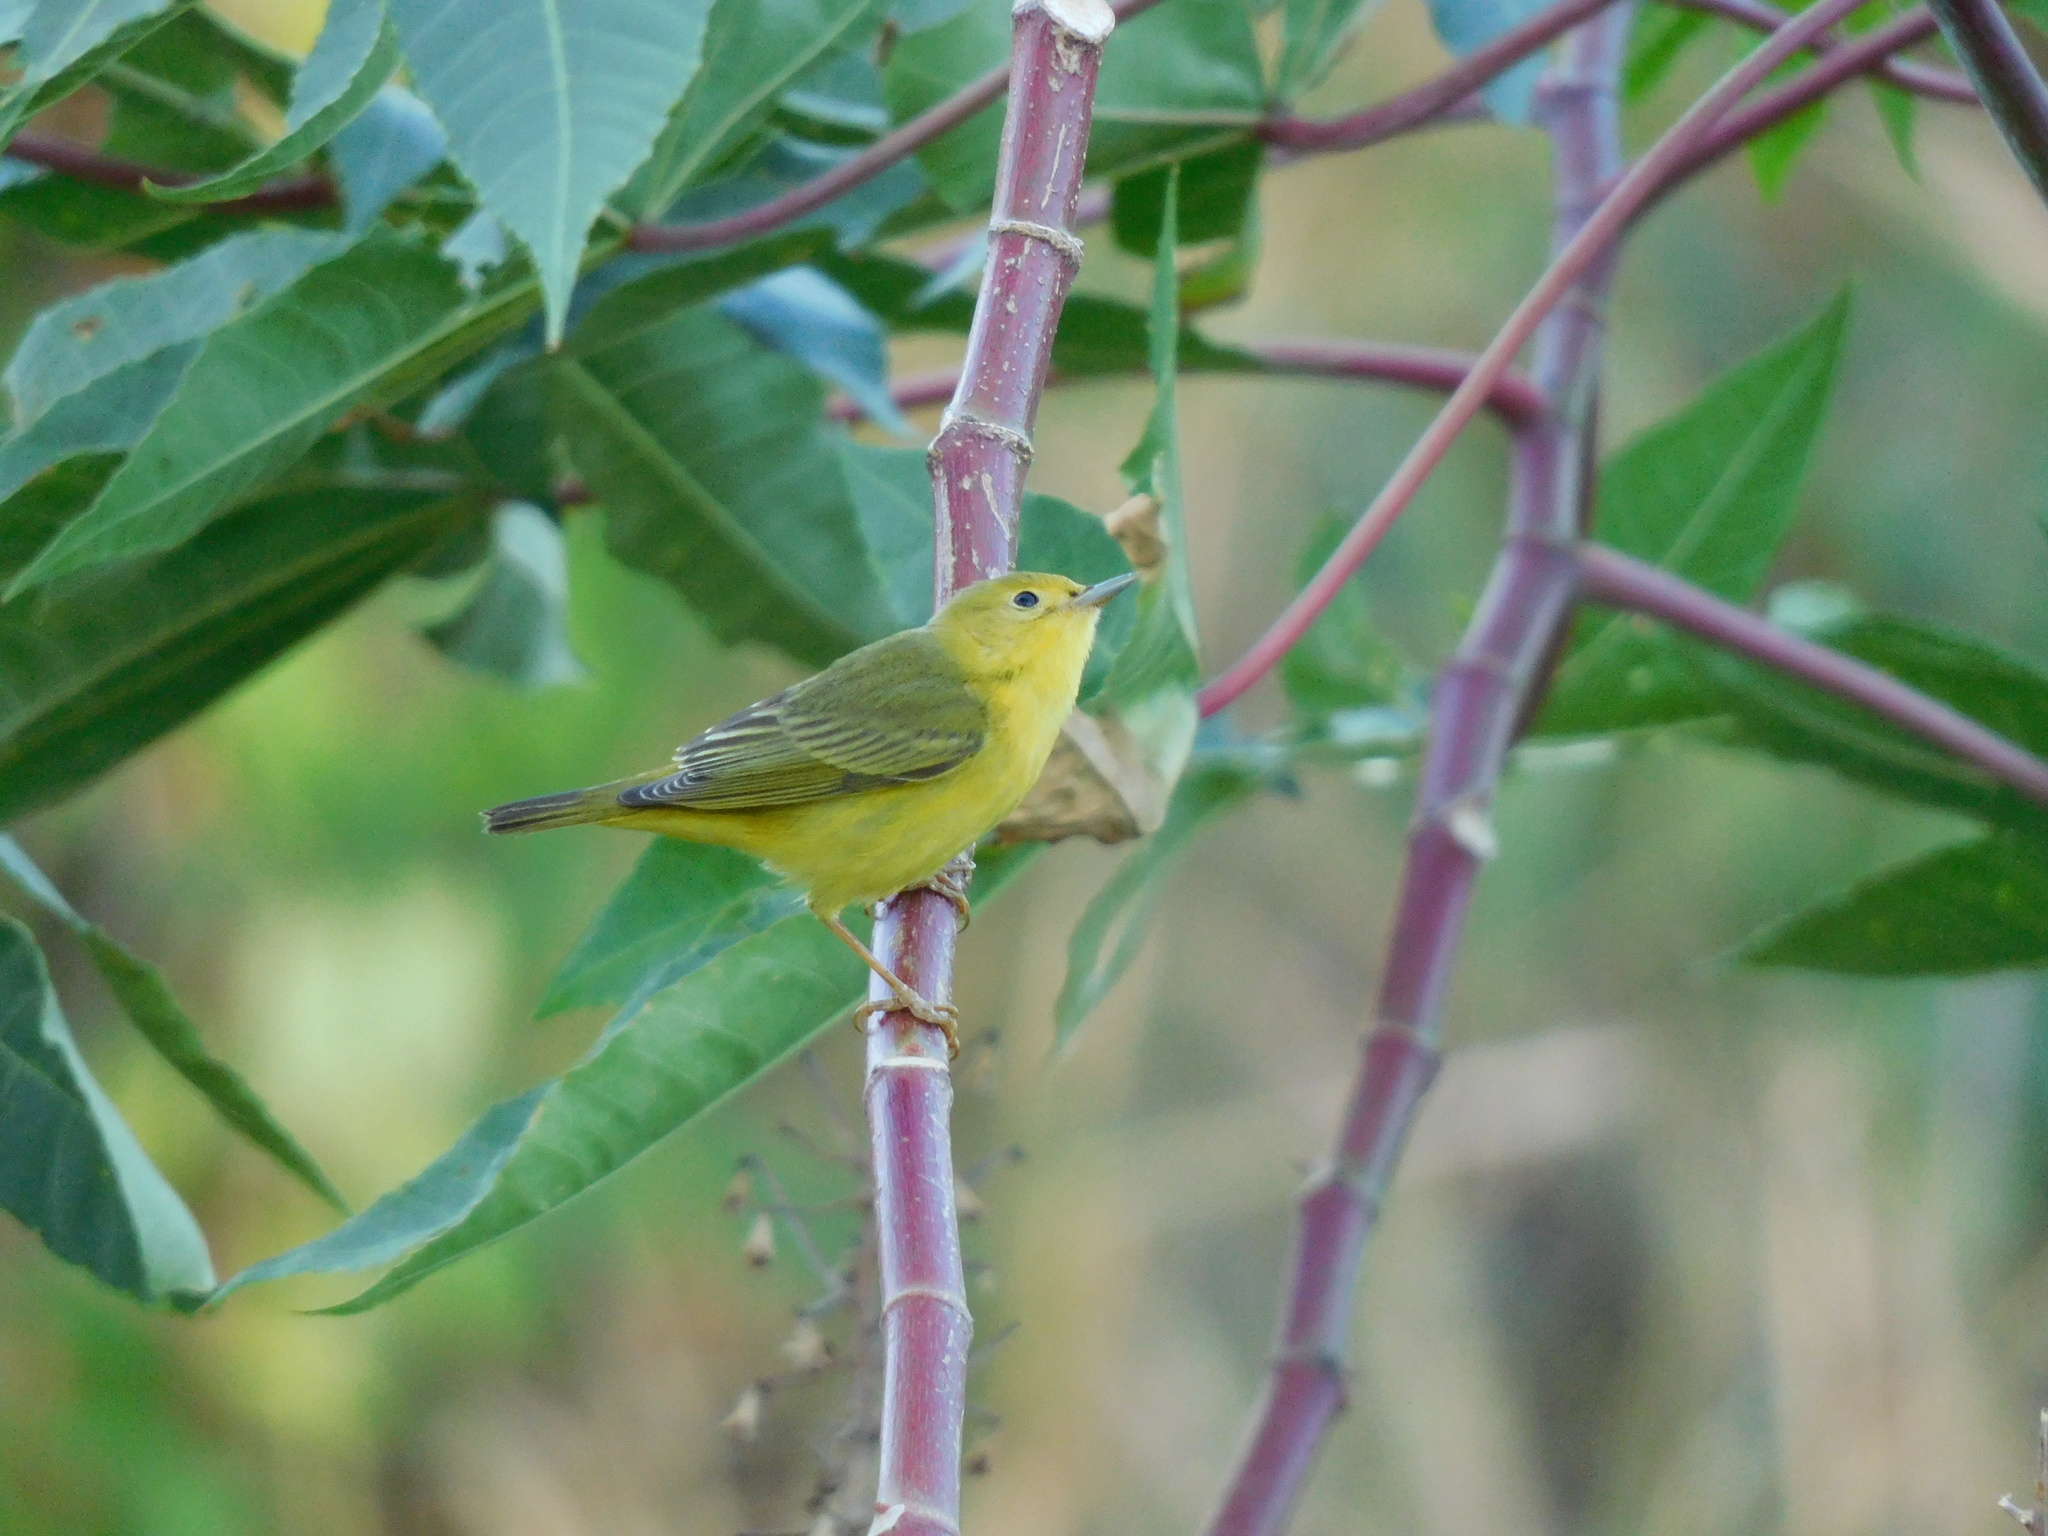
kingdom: Animalia
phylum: Chordata
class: Aves
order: Passeriformes
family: Parulidae
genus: Setophaga
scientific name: Setophaga petechia
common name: Yellow warbler
